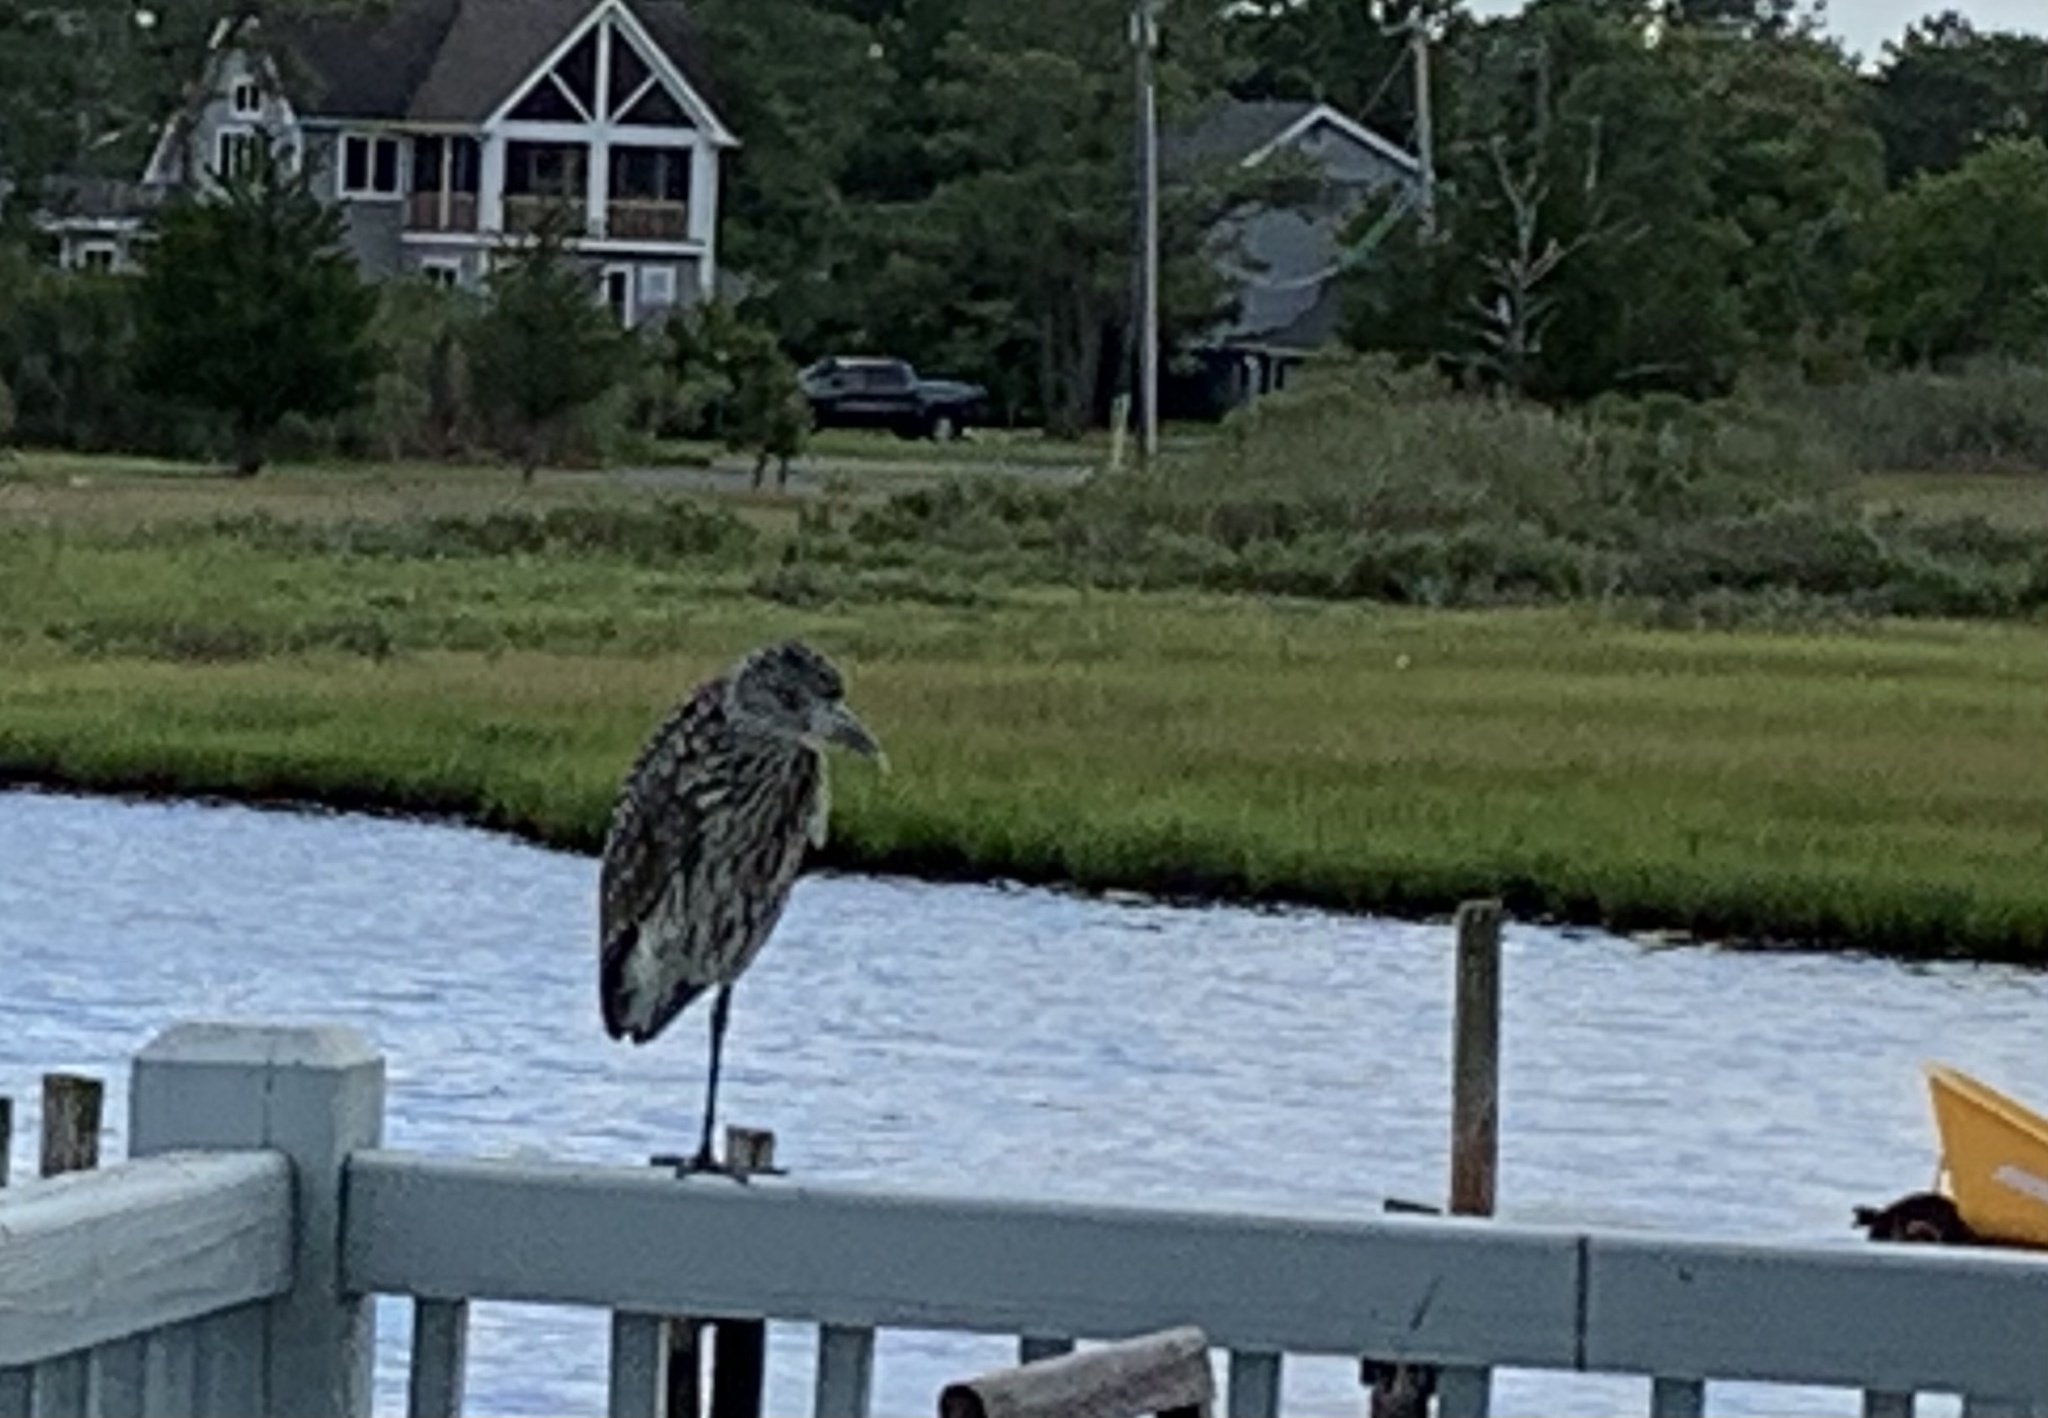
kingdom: Animalia
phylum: Chordata
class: Aves
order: Pelecaniformes
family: Ardeidae
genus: Nyctanassa
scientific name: Nyctanassa violacea
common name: Yellow-crowned night heron
